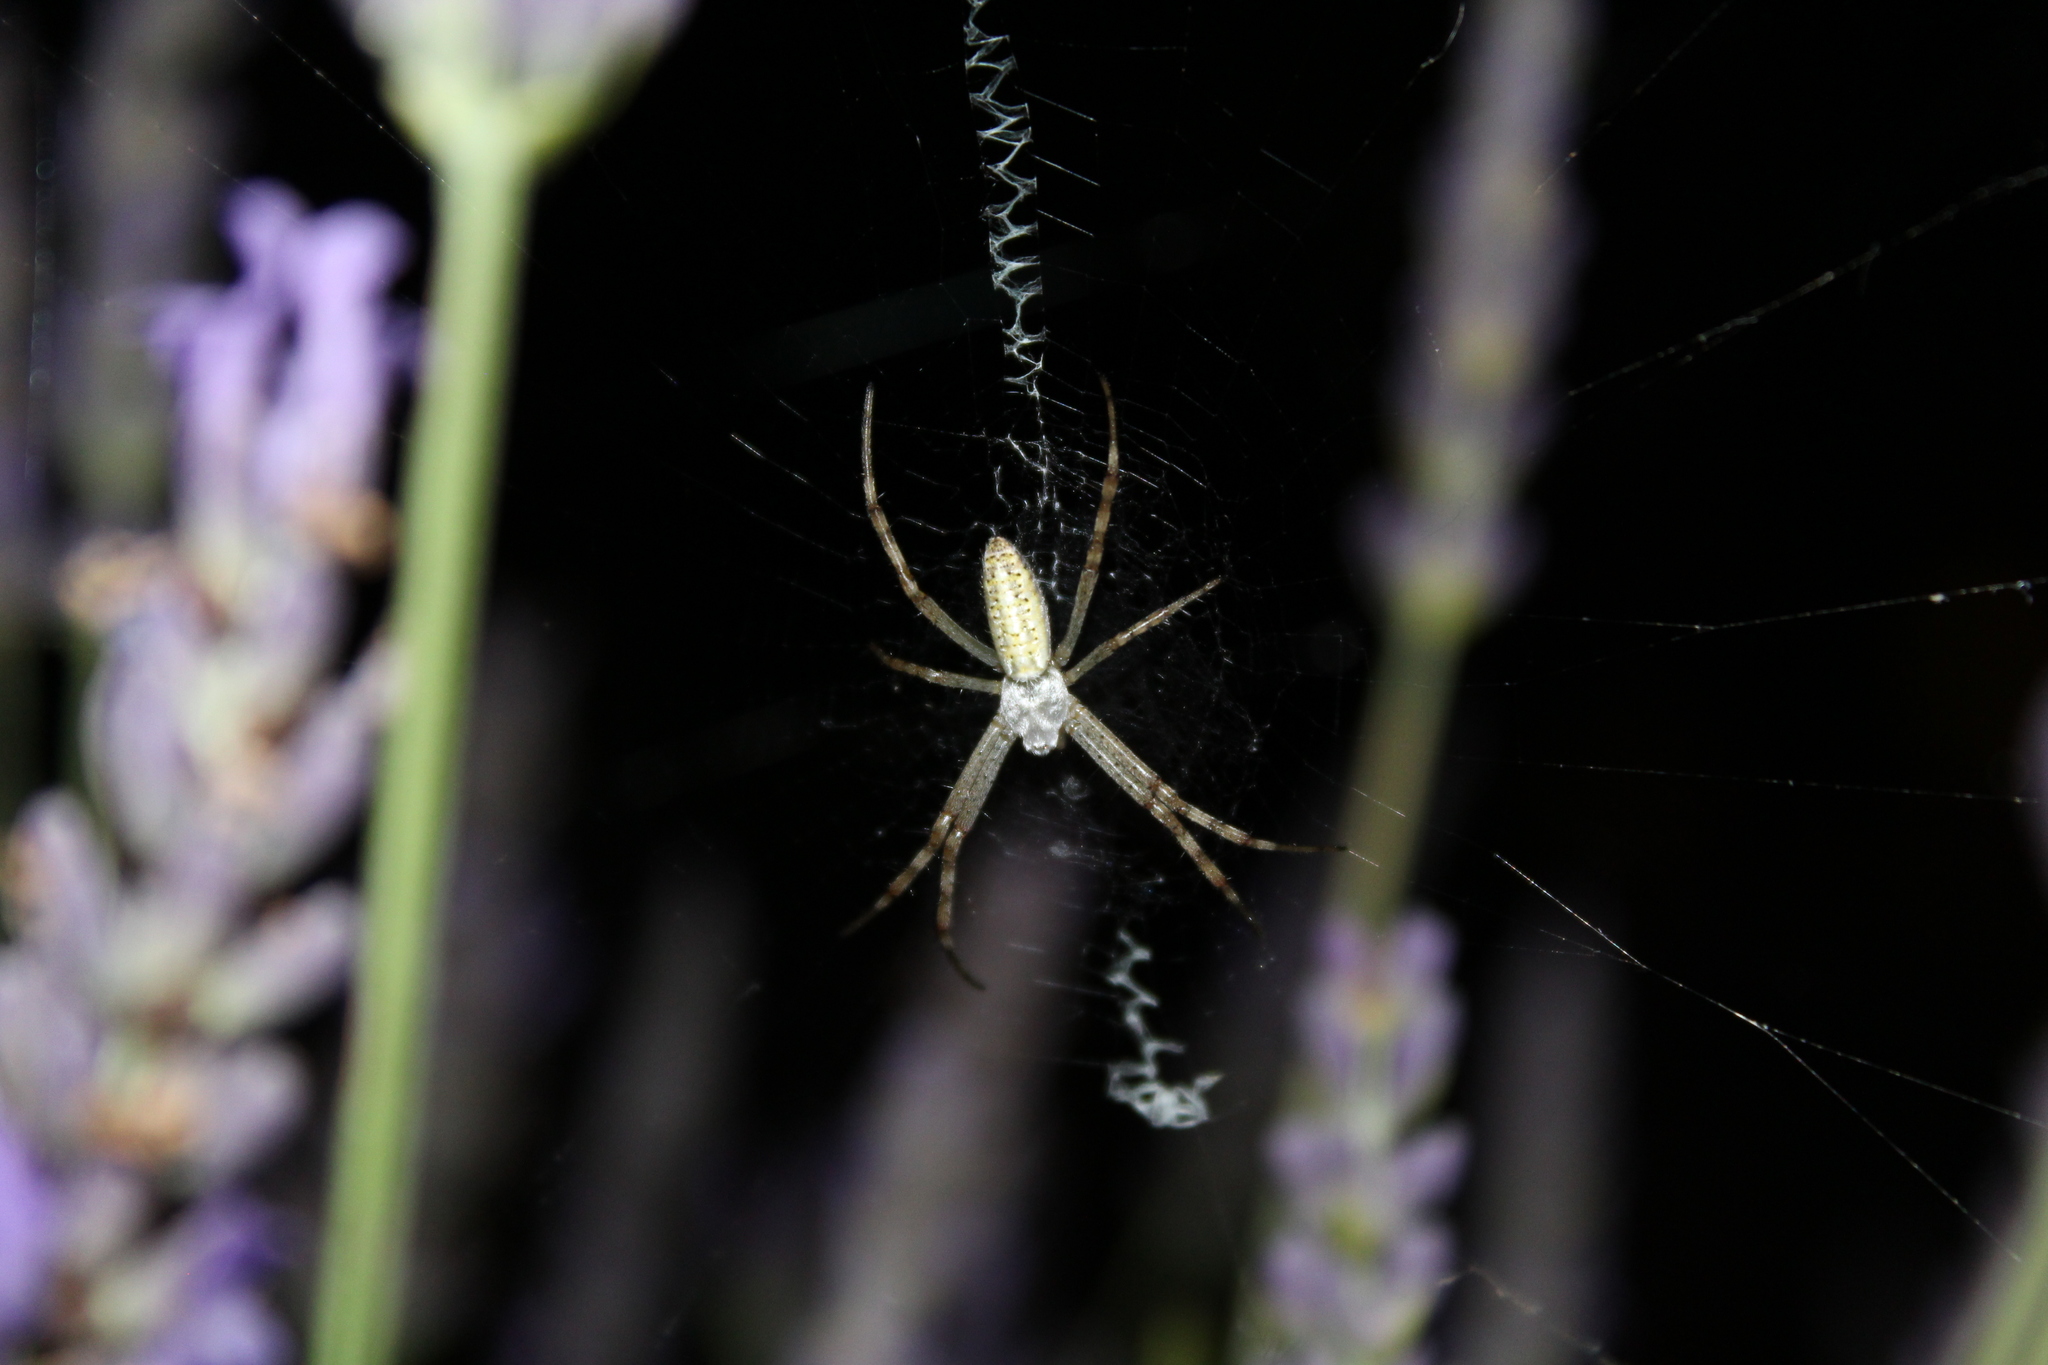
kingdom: Animalia
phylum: Arthropoda
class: Arachnida
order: Araneae
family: Araneidae
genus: Argiope
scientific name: Argiope bruennichi
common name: Wasp spider
